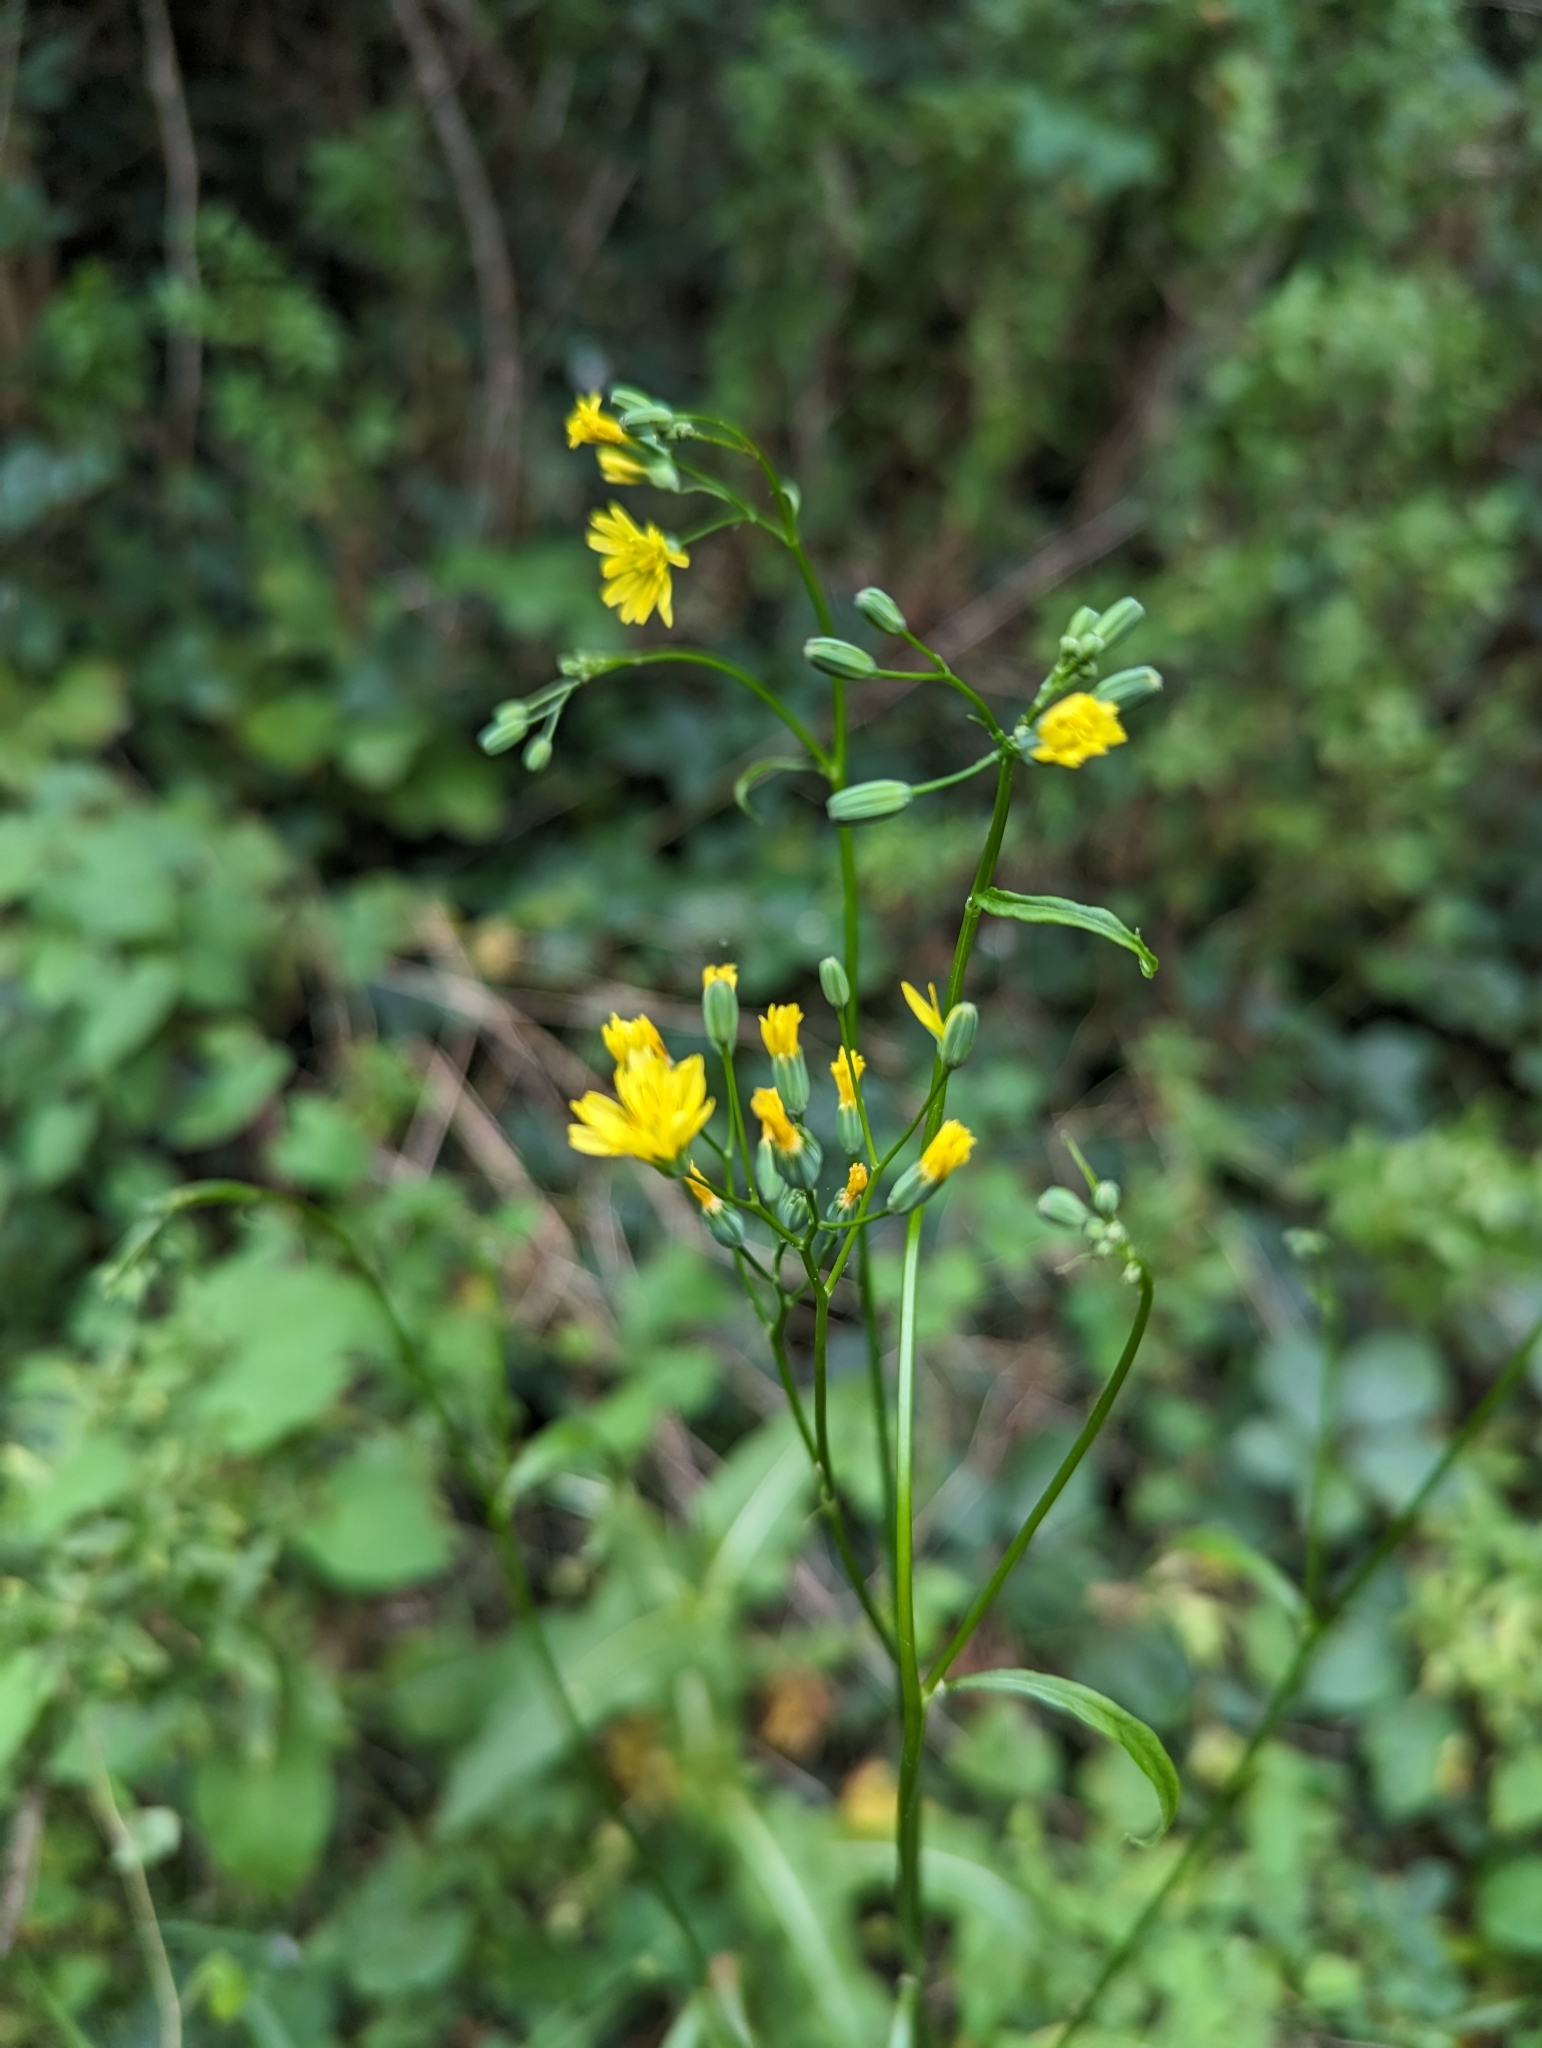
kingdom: Plantae
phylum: Tracheophyta
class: Magnoliopsida
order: Asterales
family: Asteraceae
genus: Lapsana
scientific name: Lapsana communis
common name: Nipplewort
